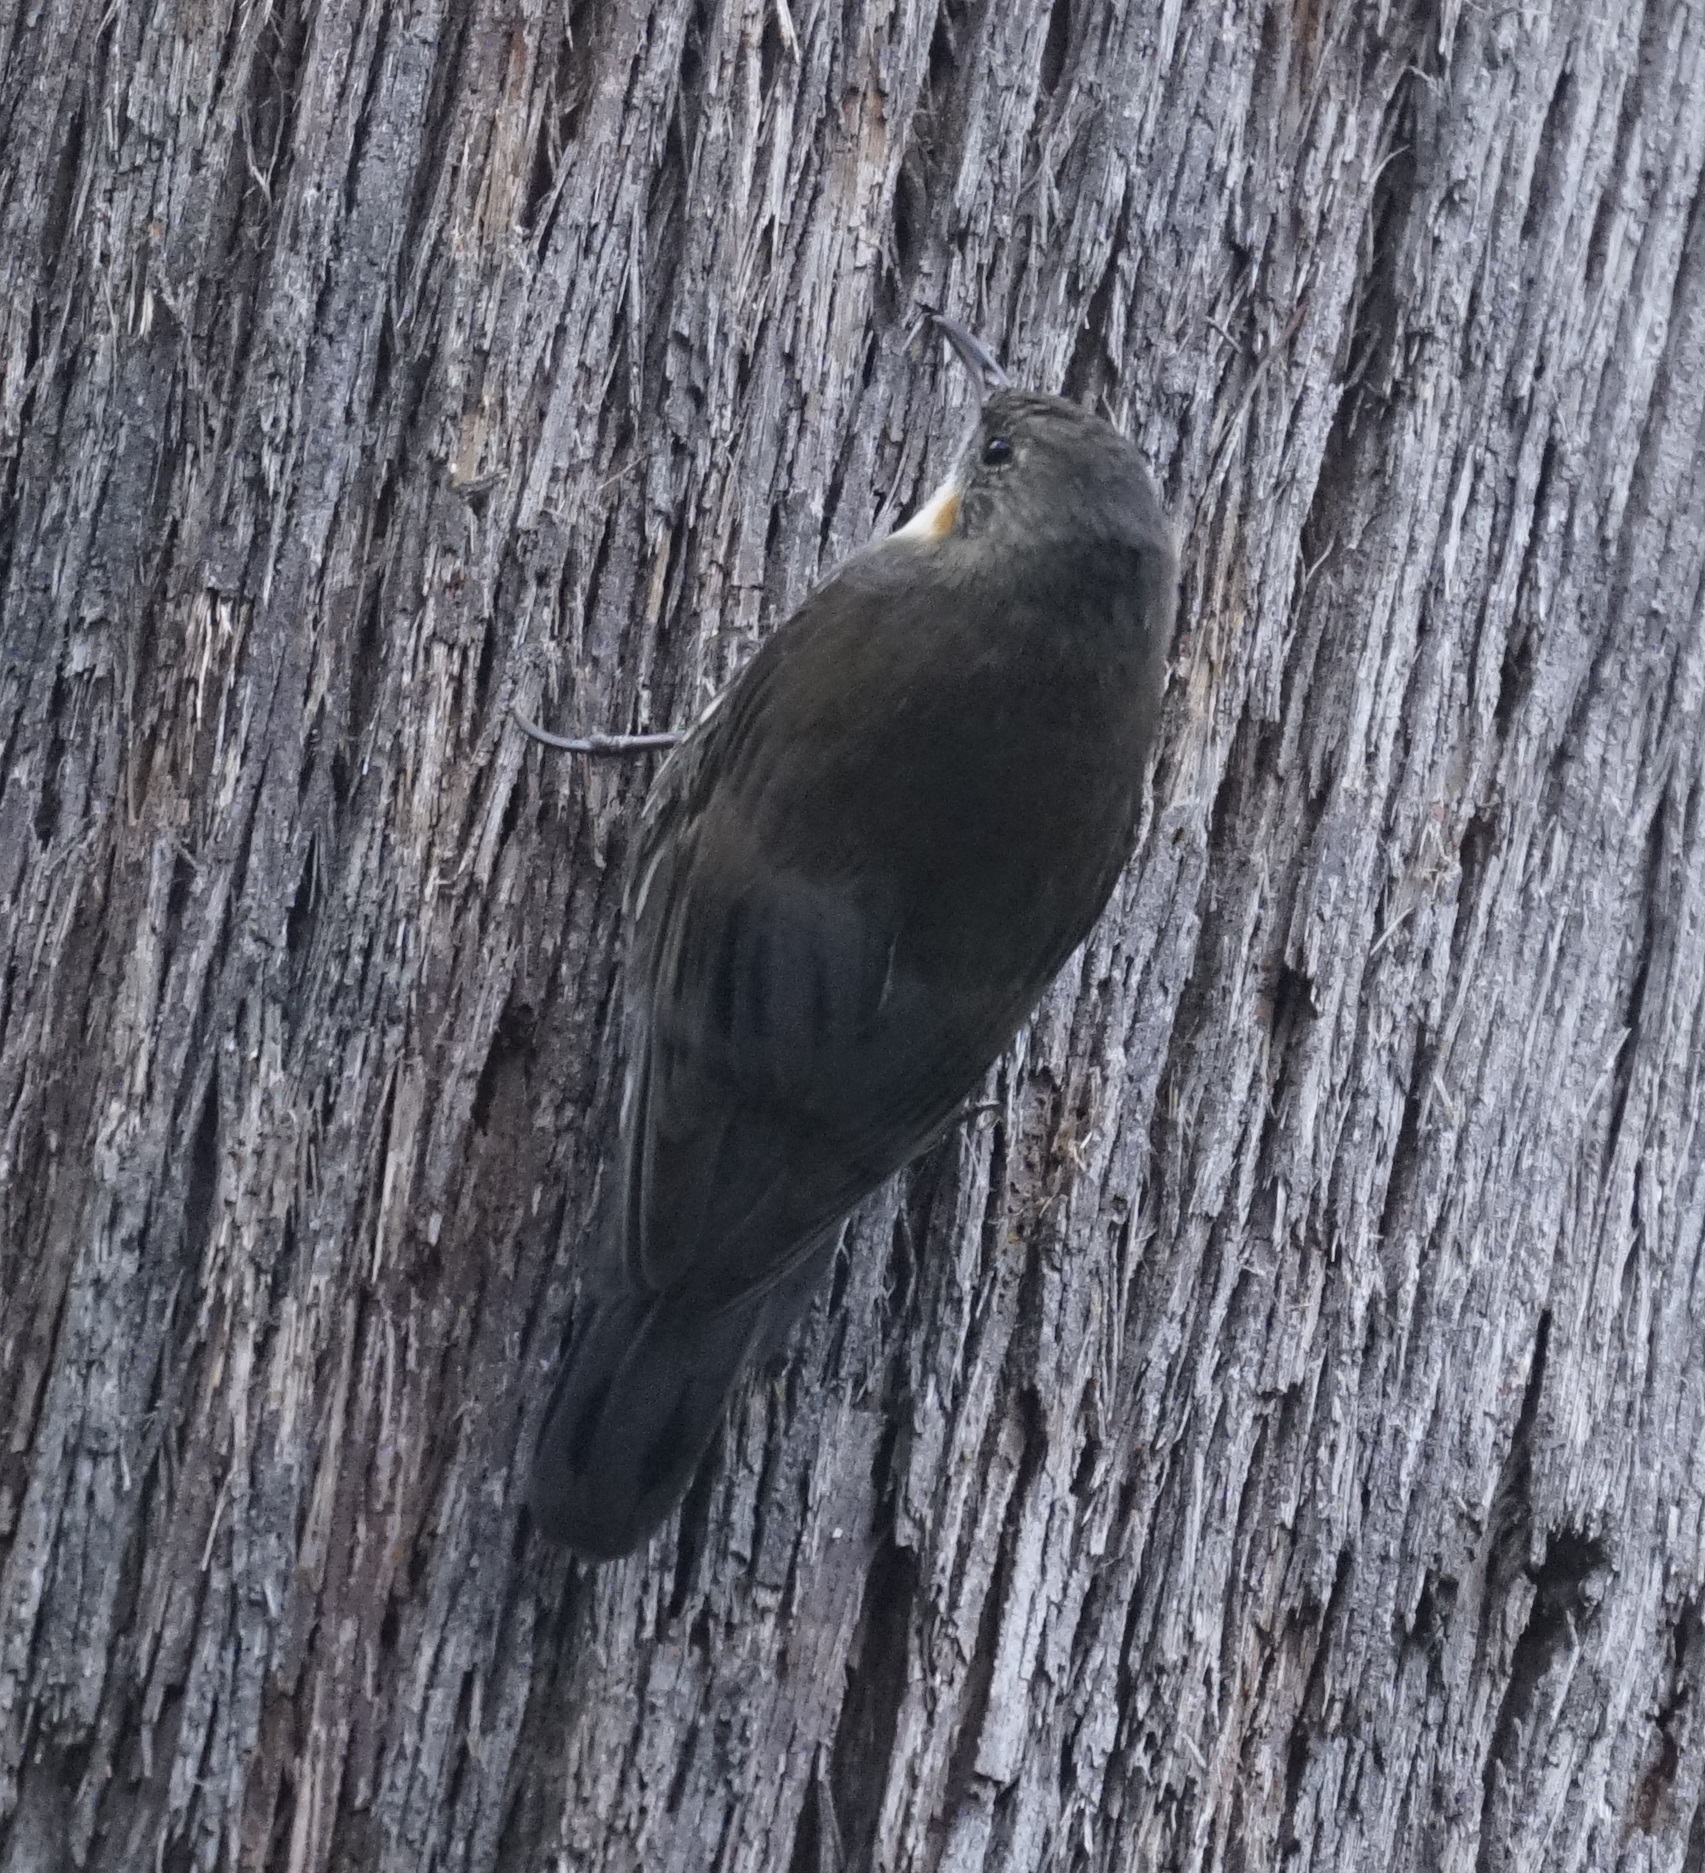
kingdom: Animalia
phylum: Chordata
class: Aves
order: Passeriformes
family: Climacteridae
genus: Cormobates
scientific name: Cormobates leucophaea
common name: White-throated treecreeper
